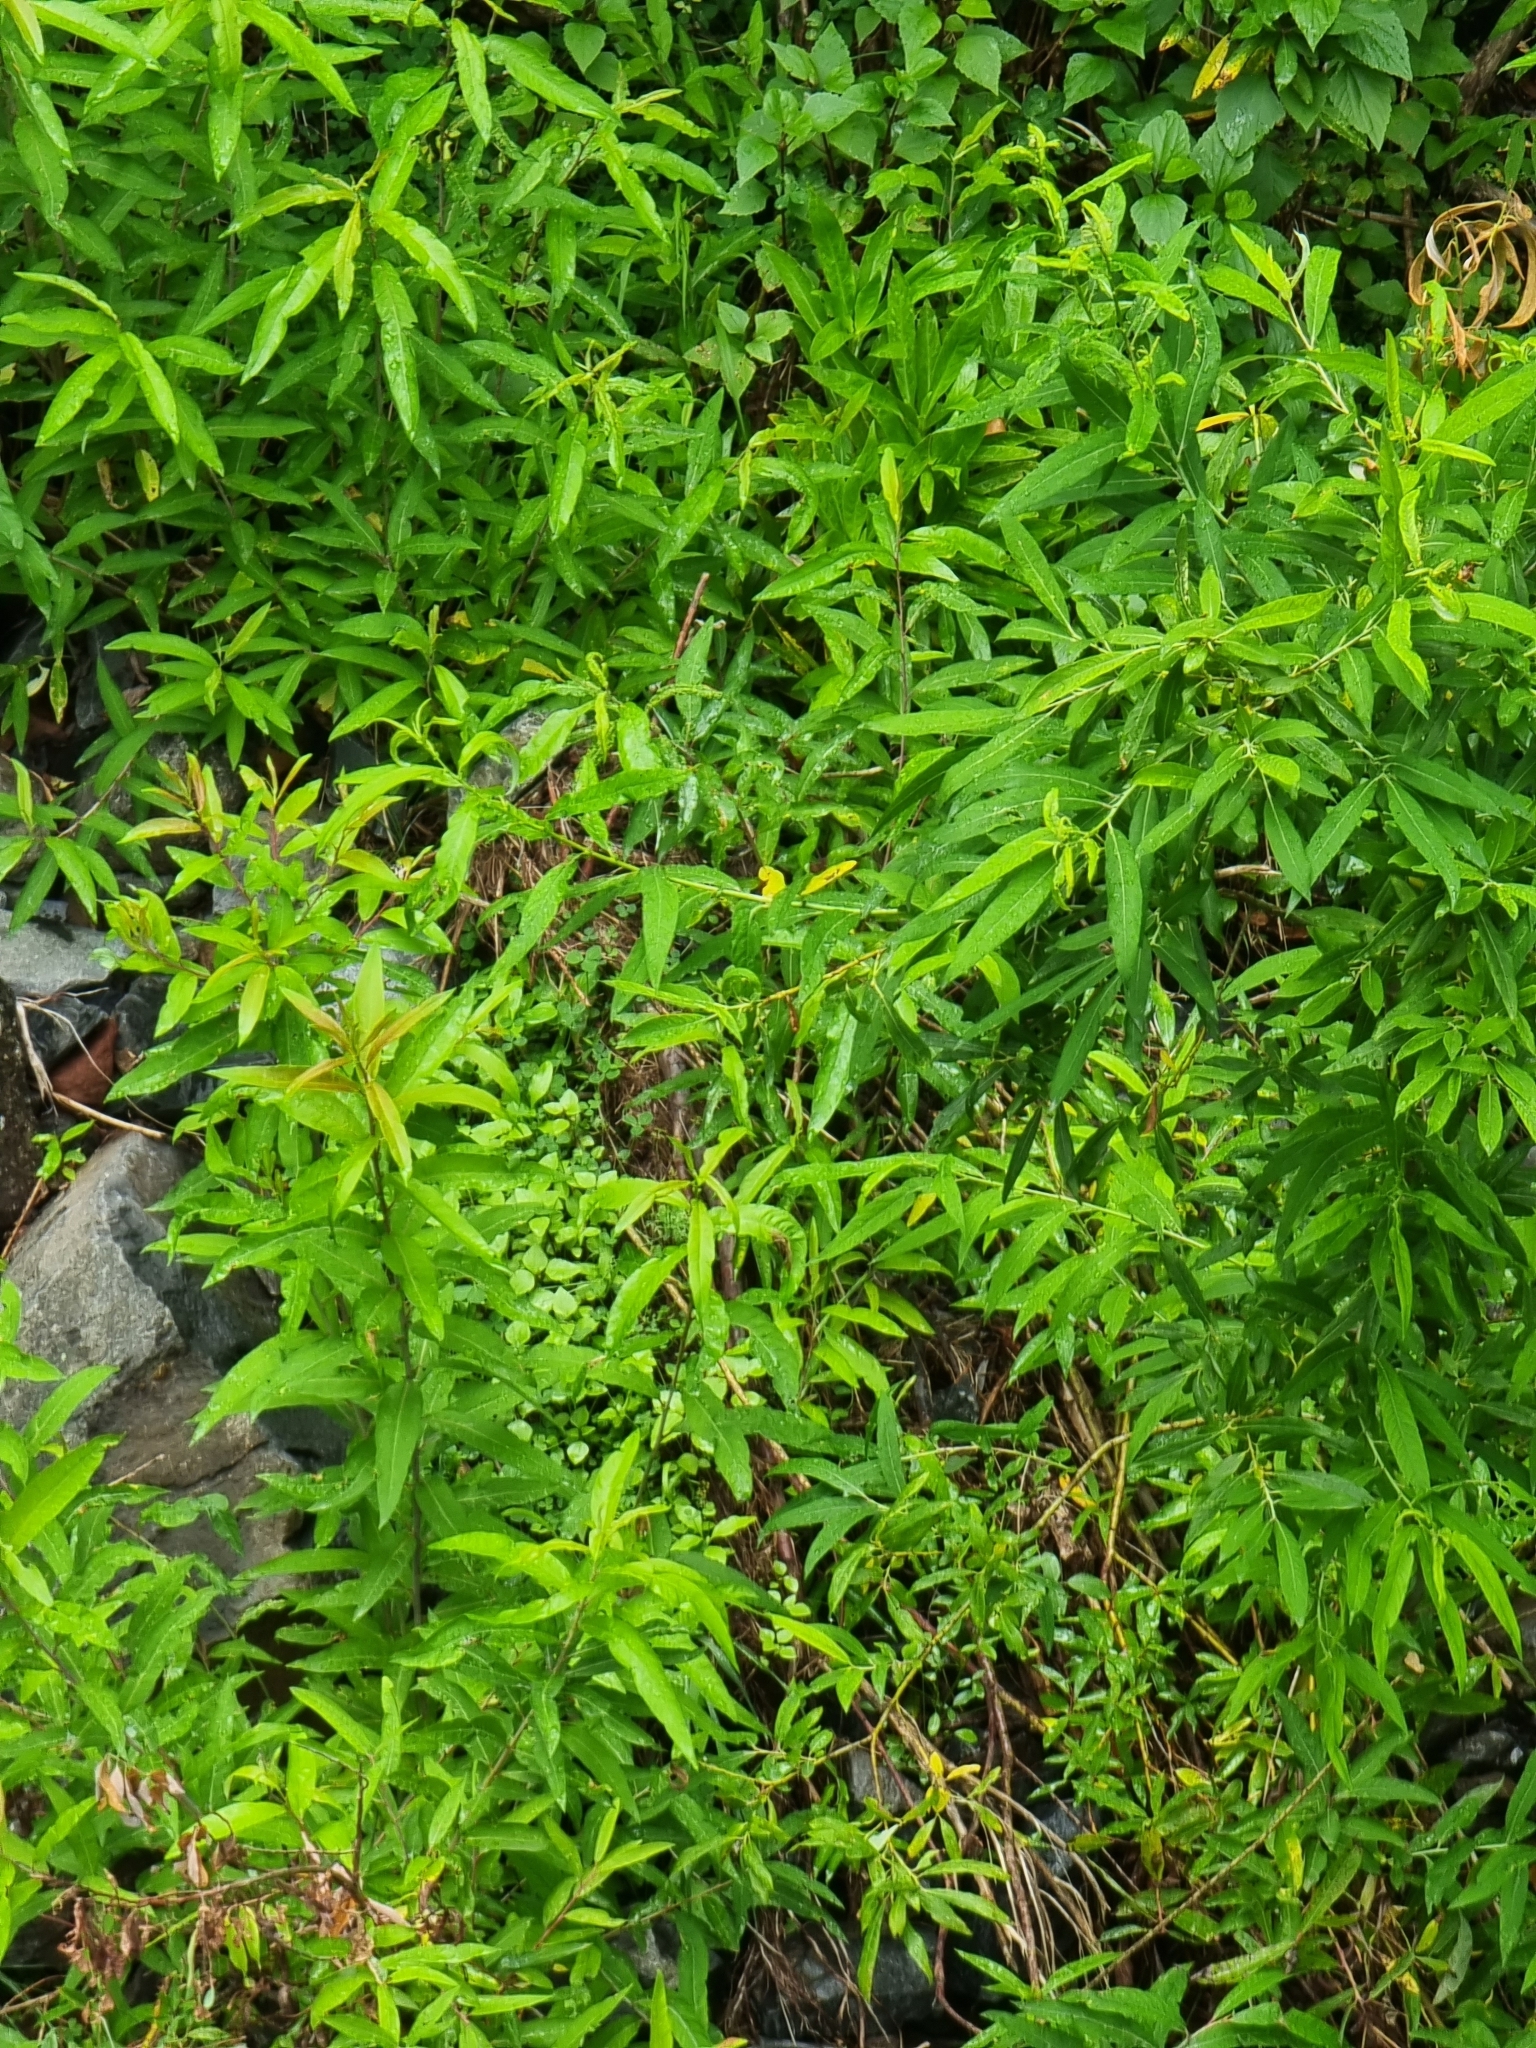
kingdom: Plantae
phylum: Tracheophyta
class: Magnoliopsida
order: Malpighiales
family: Salicaceae
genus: Salix
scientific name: Salix canariensis
